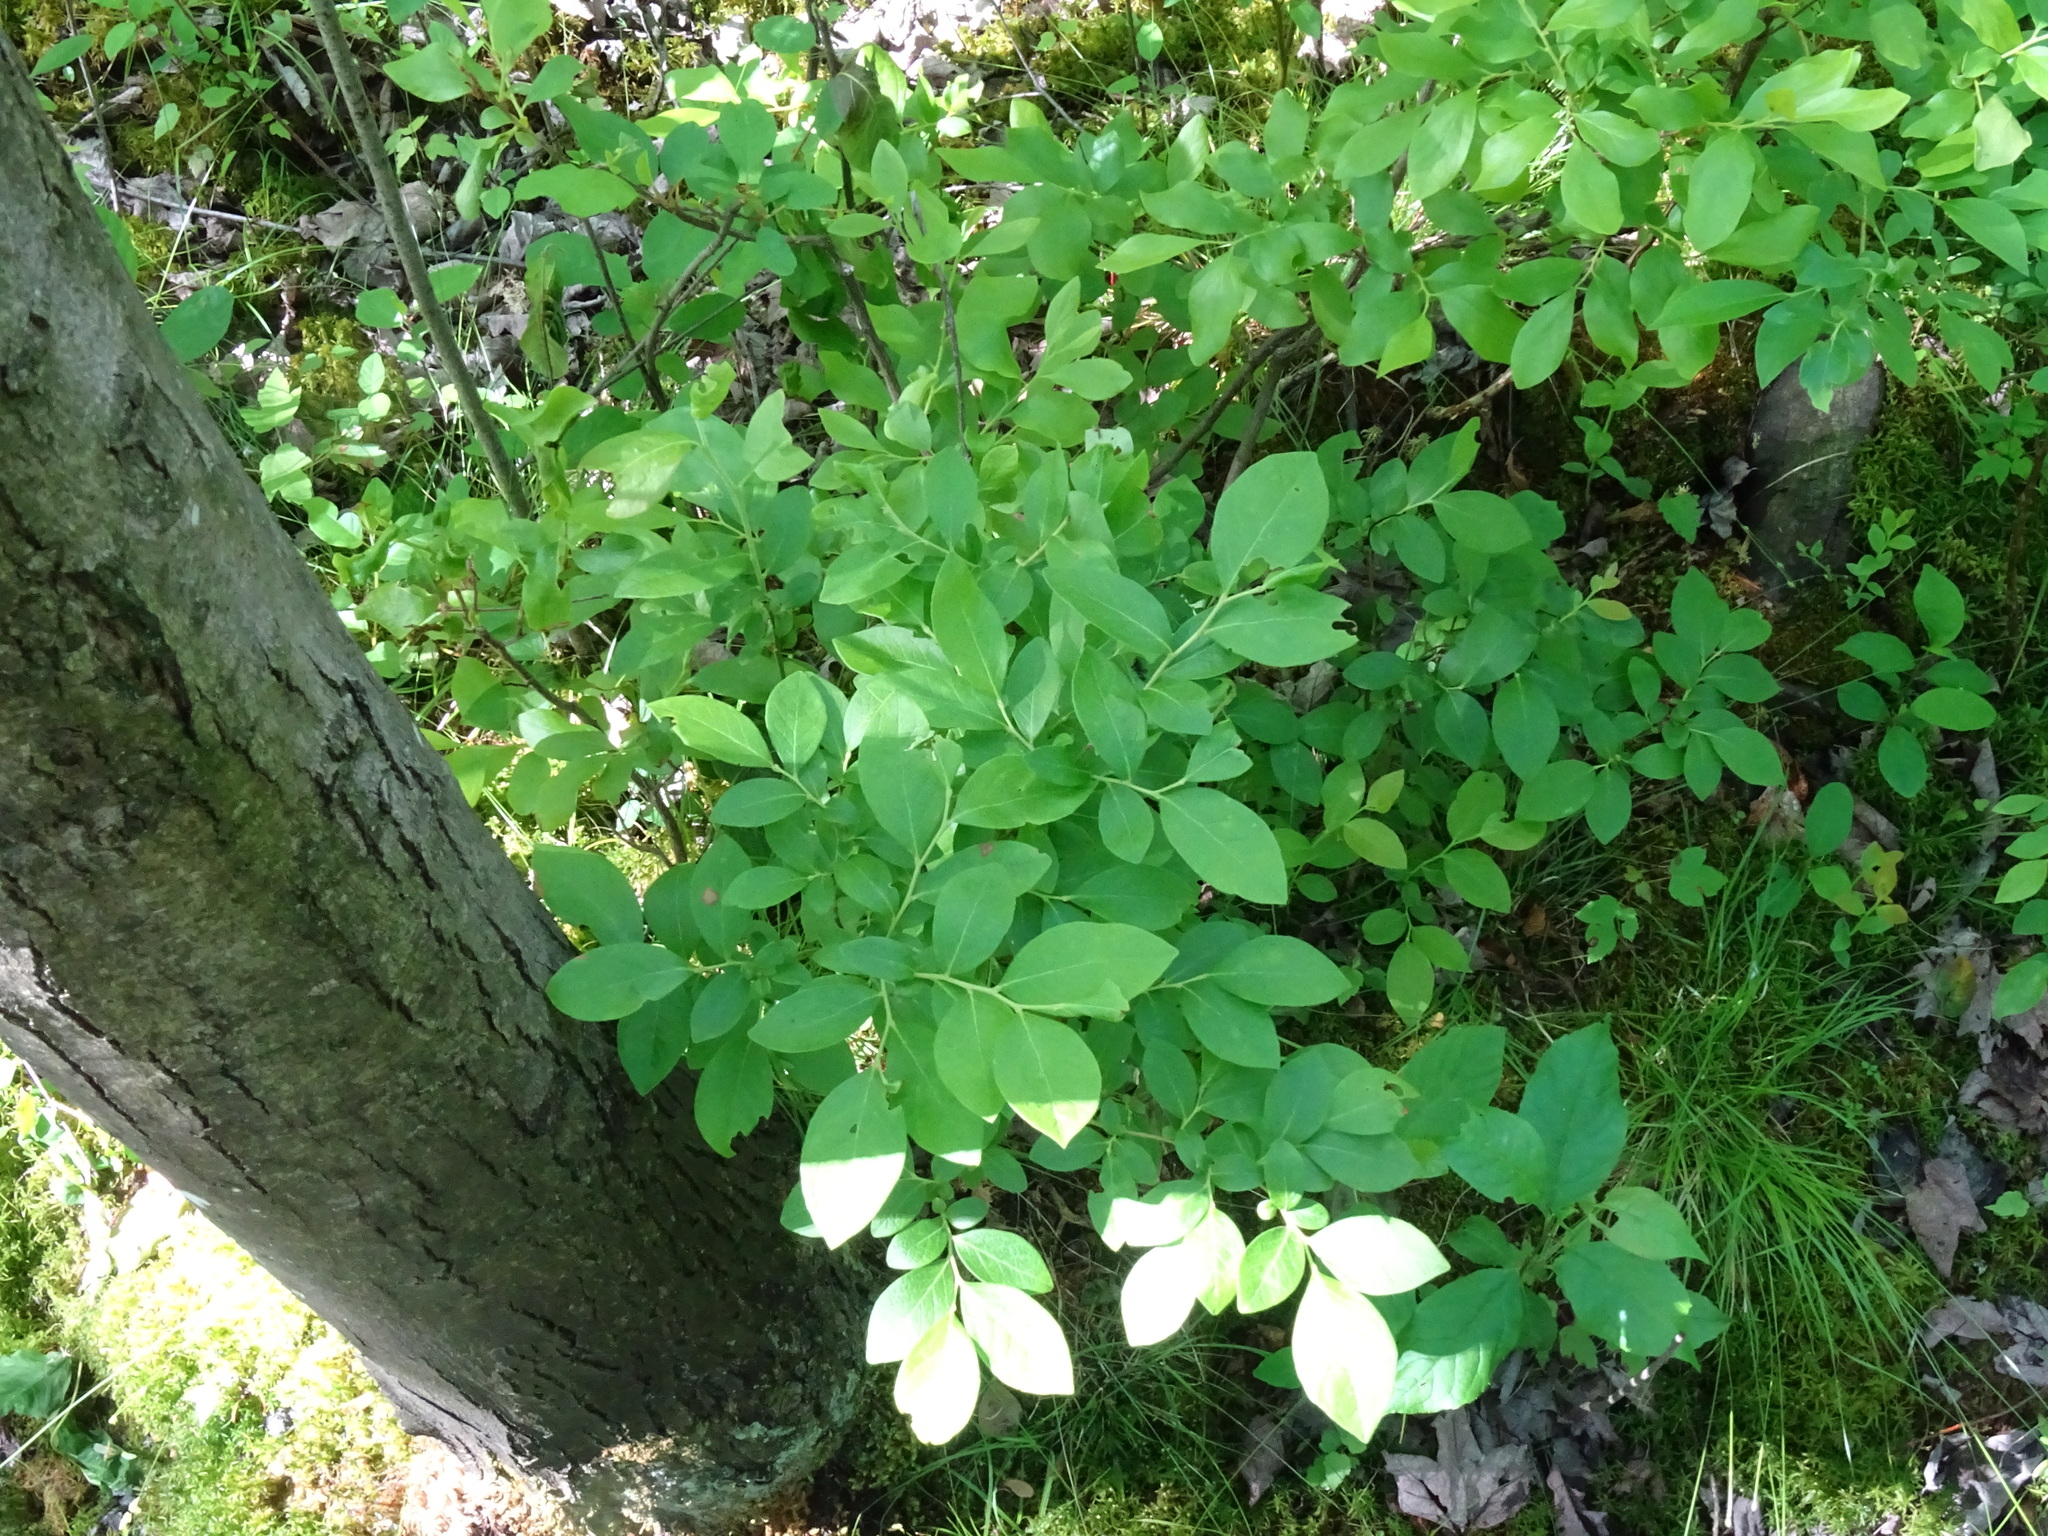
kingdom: Plantae
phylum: Tracheophyta
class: Magnoliopsida
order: Ericales
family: Ericaceae
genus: Vaccinium
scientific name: Vaccinium corymbosum
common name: Blueberry
